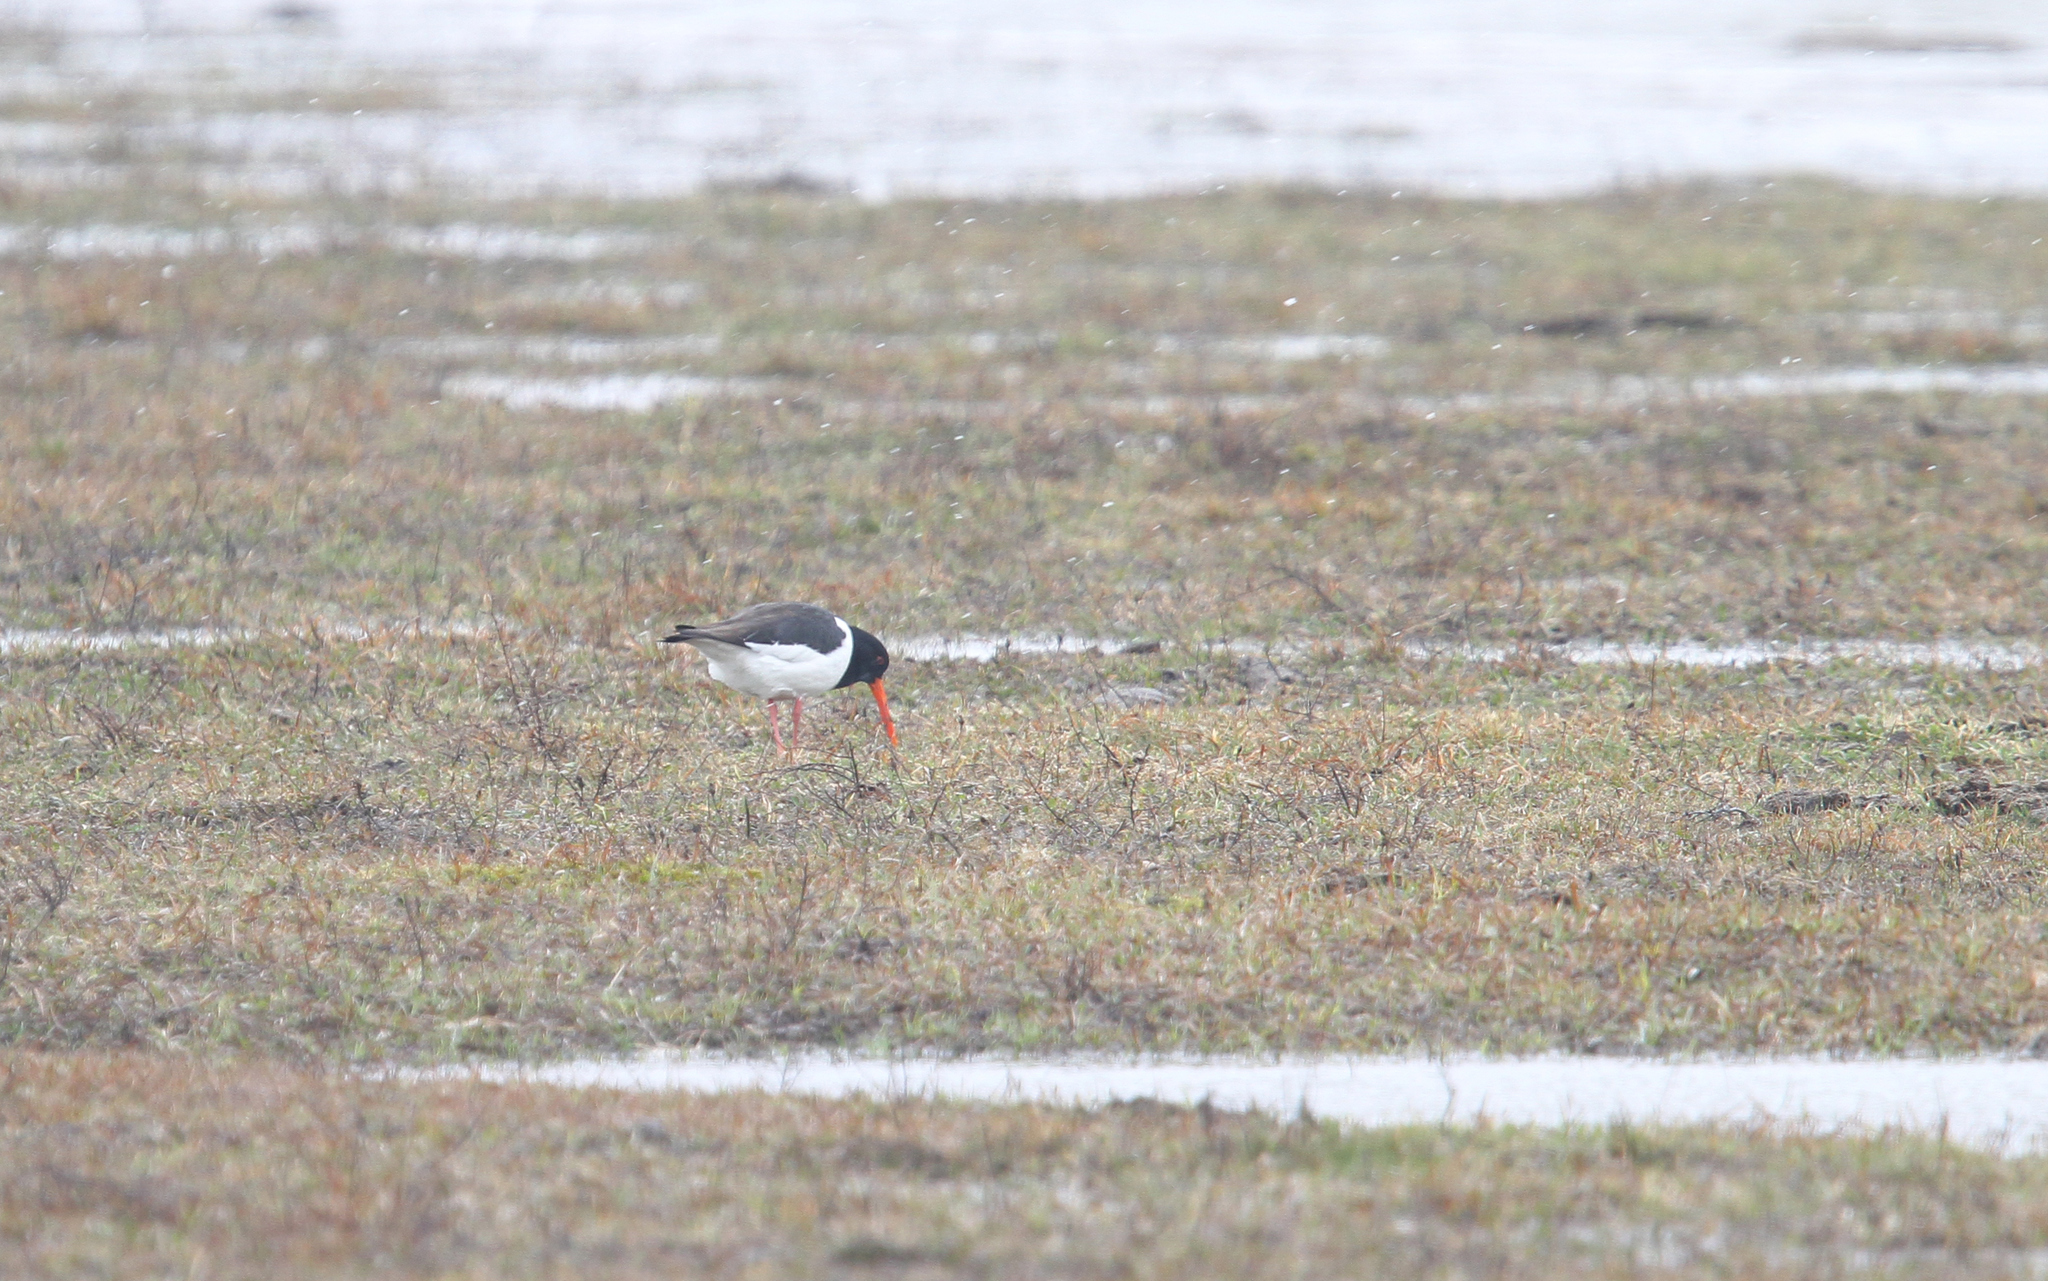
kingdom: Animalia
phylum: Chordata
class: Aves
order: Charadriiformes
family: Haematopodidae
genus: Haematopus
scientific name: Haematopus ostralegus
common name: Eurasian oystercatcher
